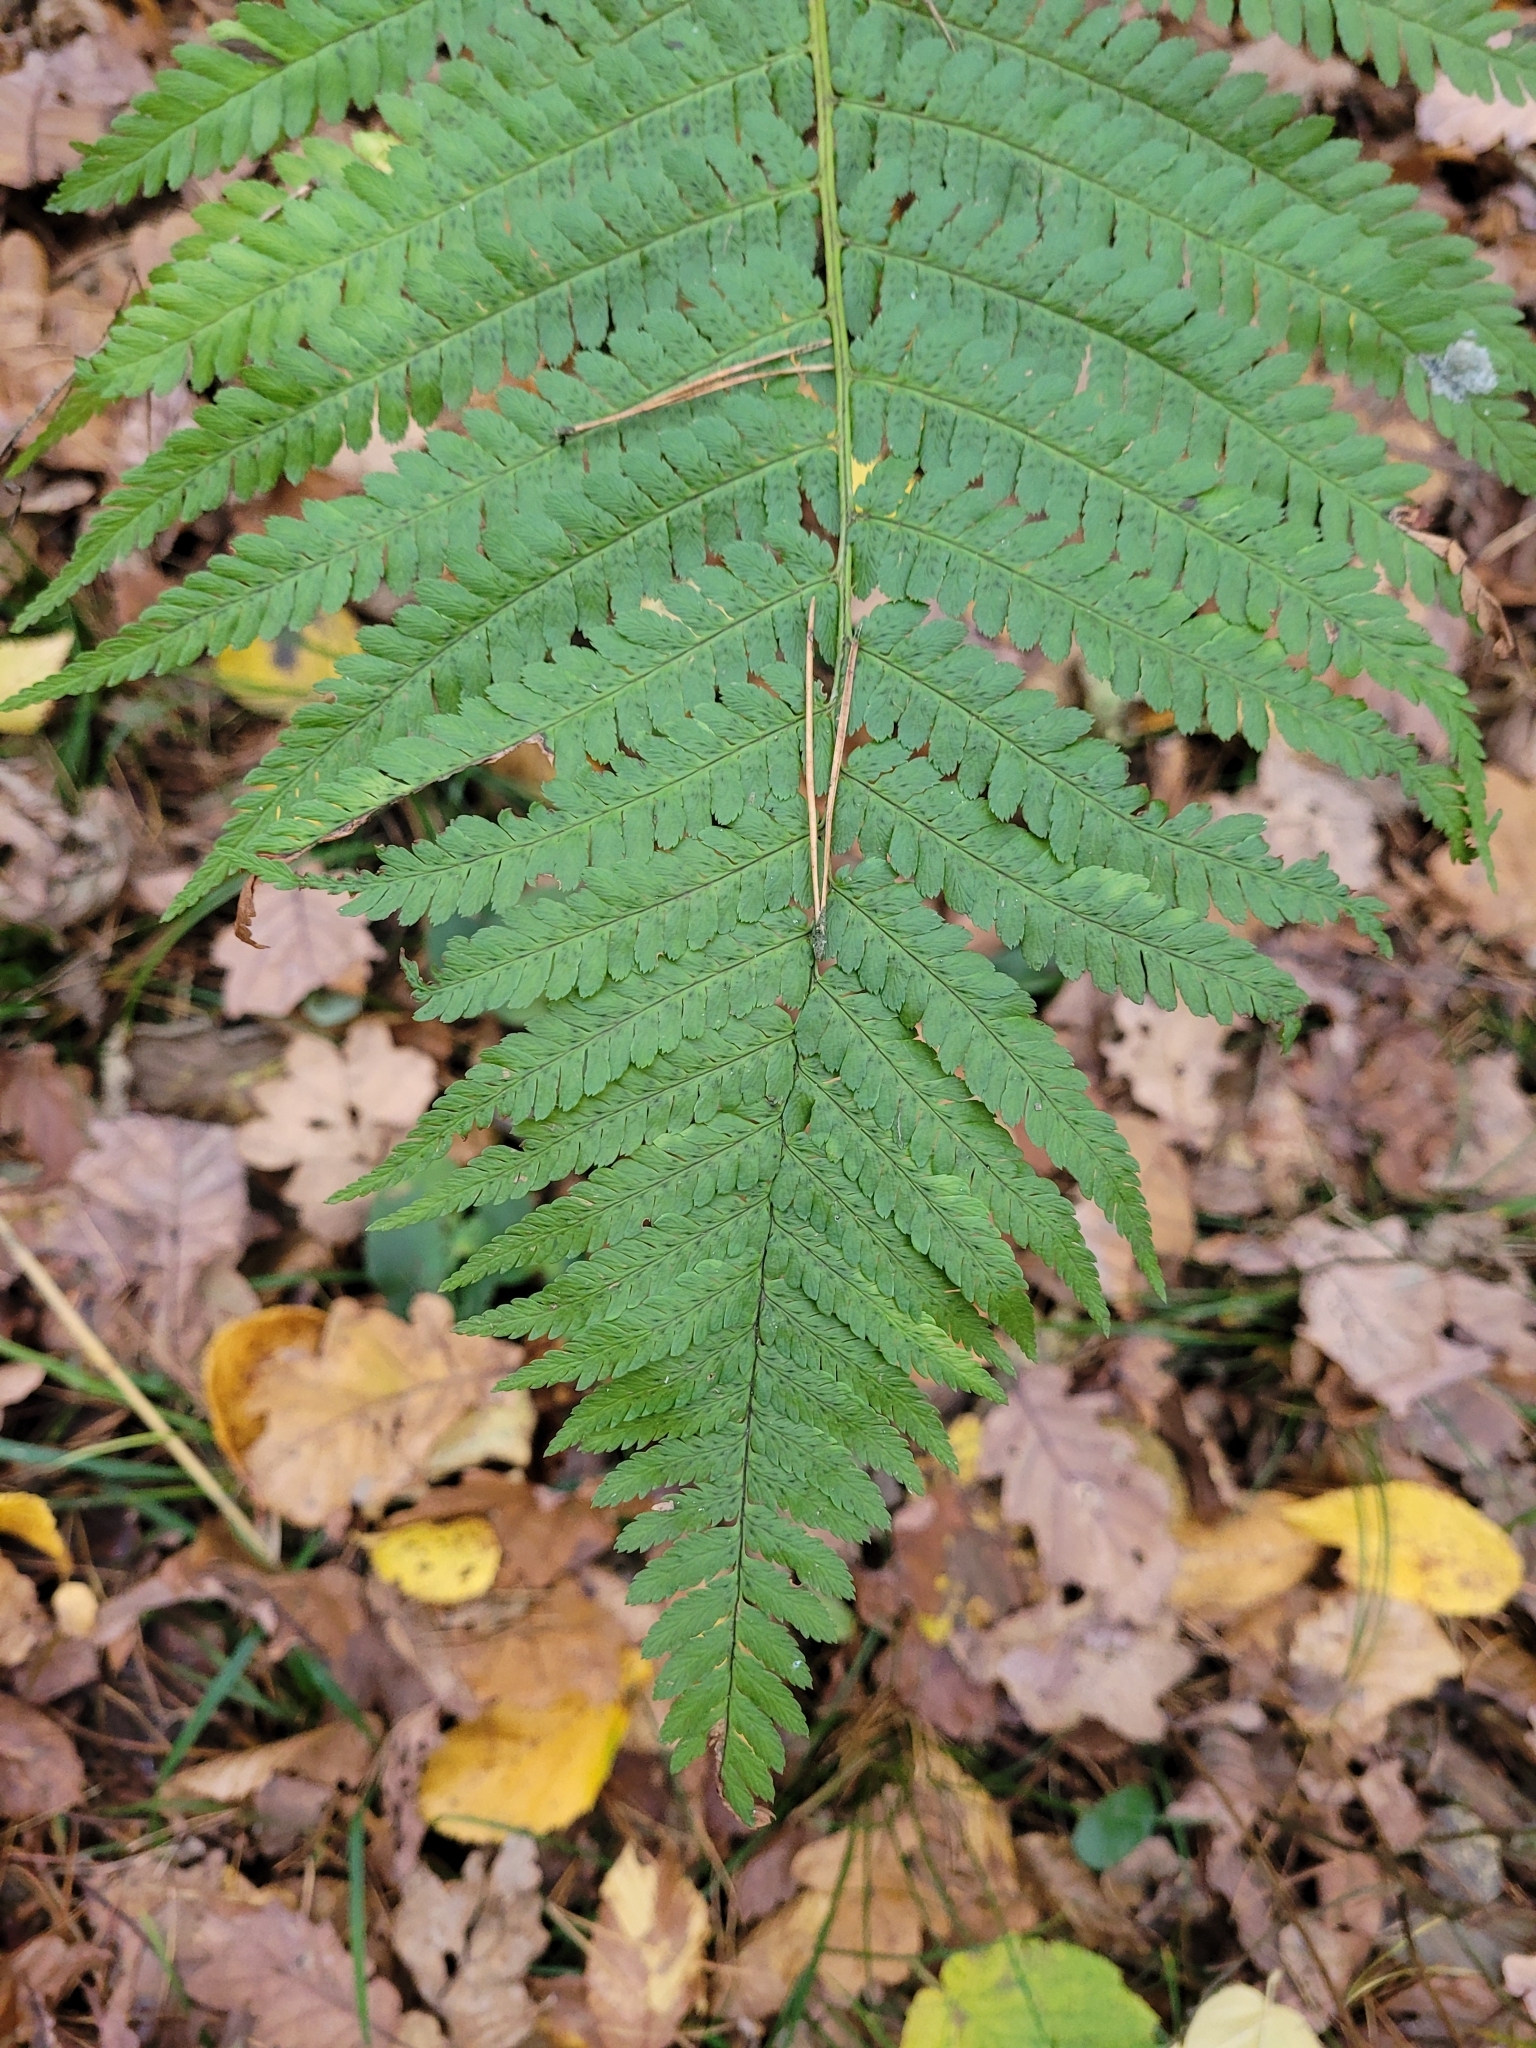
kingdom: Plantae
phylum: Tracheophyta
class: Polypodiopsida
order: Polypodiales
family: Dryopteridaceae
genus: Dryopteris
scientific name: Dryopteris filix-mas
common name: Male fern
